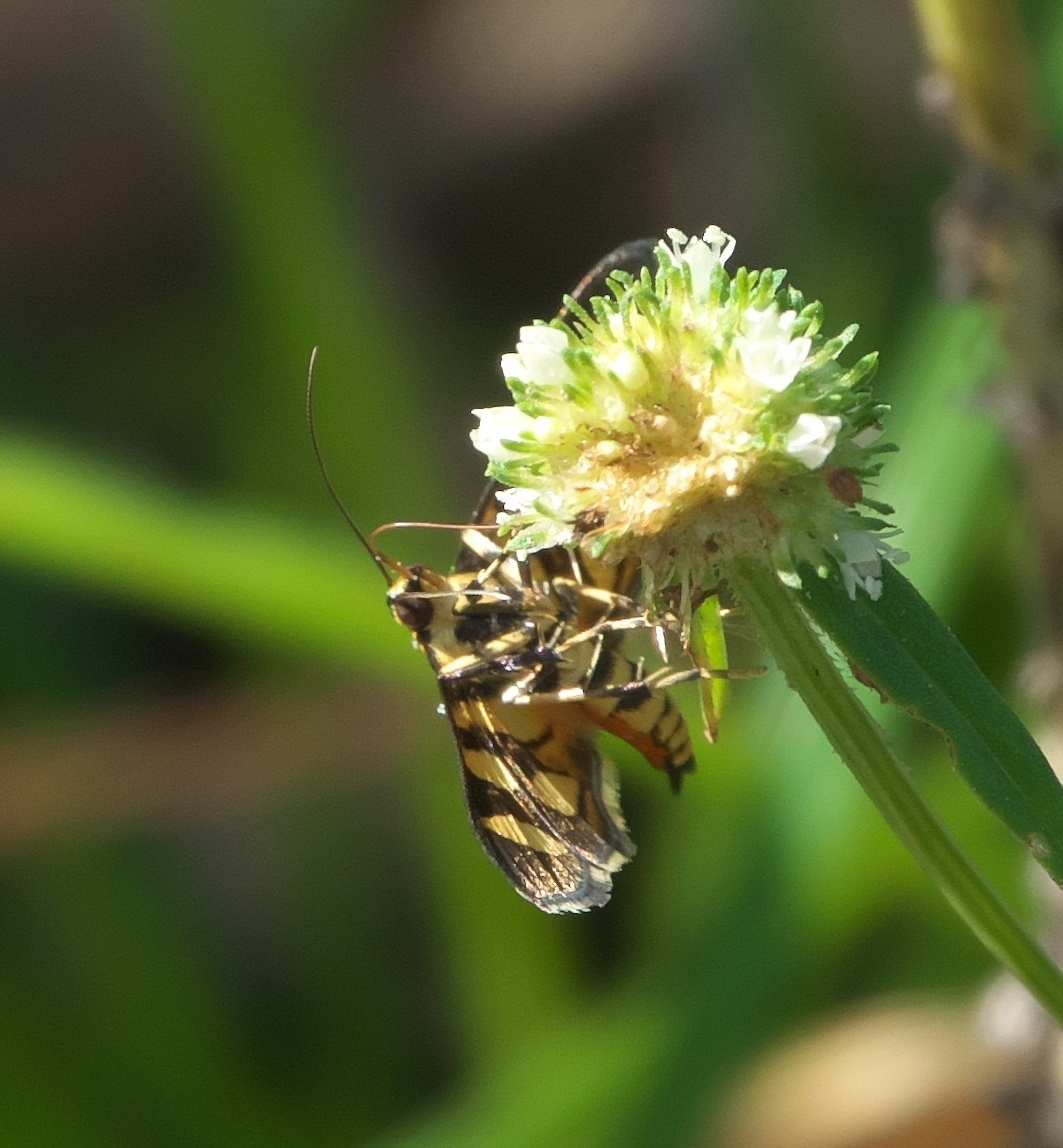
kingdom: Animalia
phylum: Arthropoda
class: Insecta
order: Lepidoptera
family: Crambidae
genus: Syngamia
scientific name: Syngamia florella
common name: Orange-spotted flower moth
